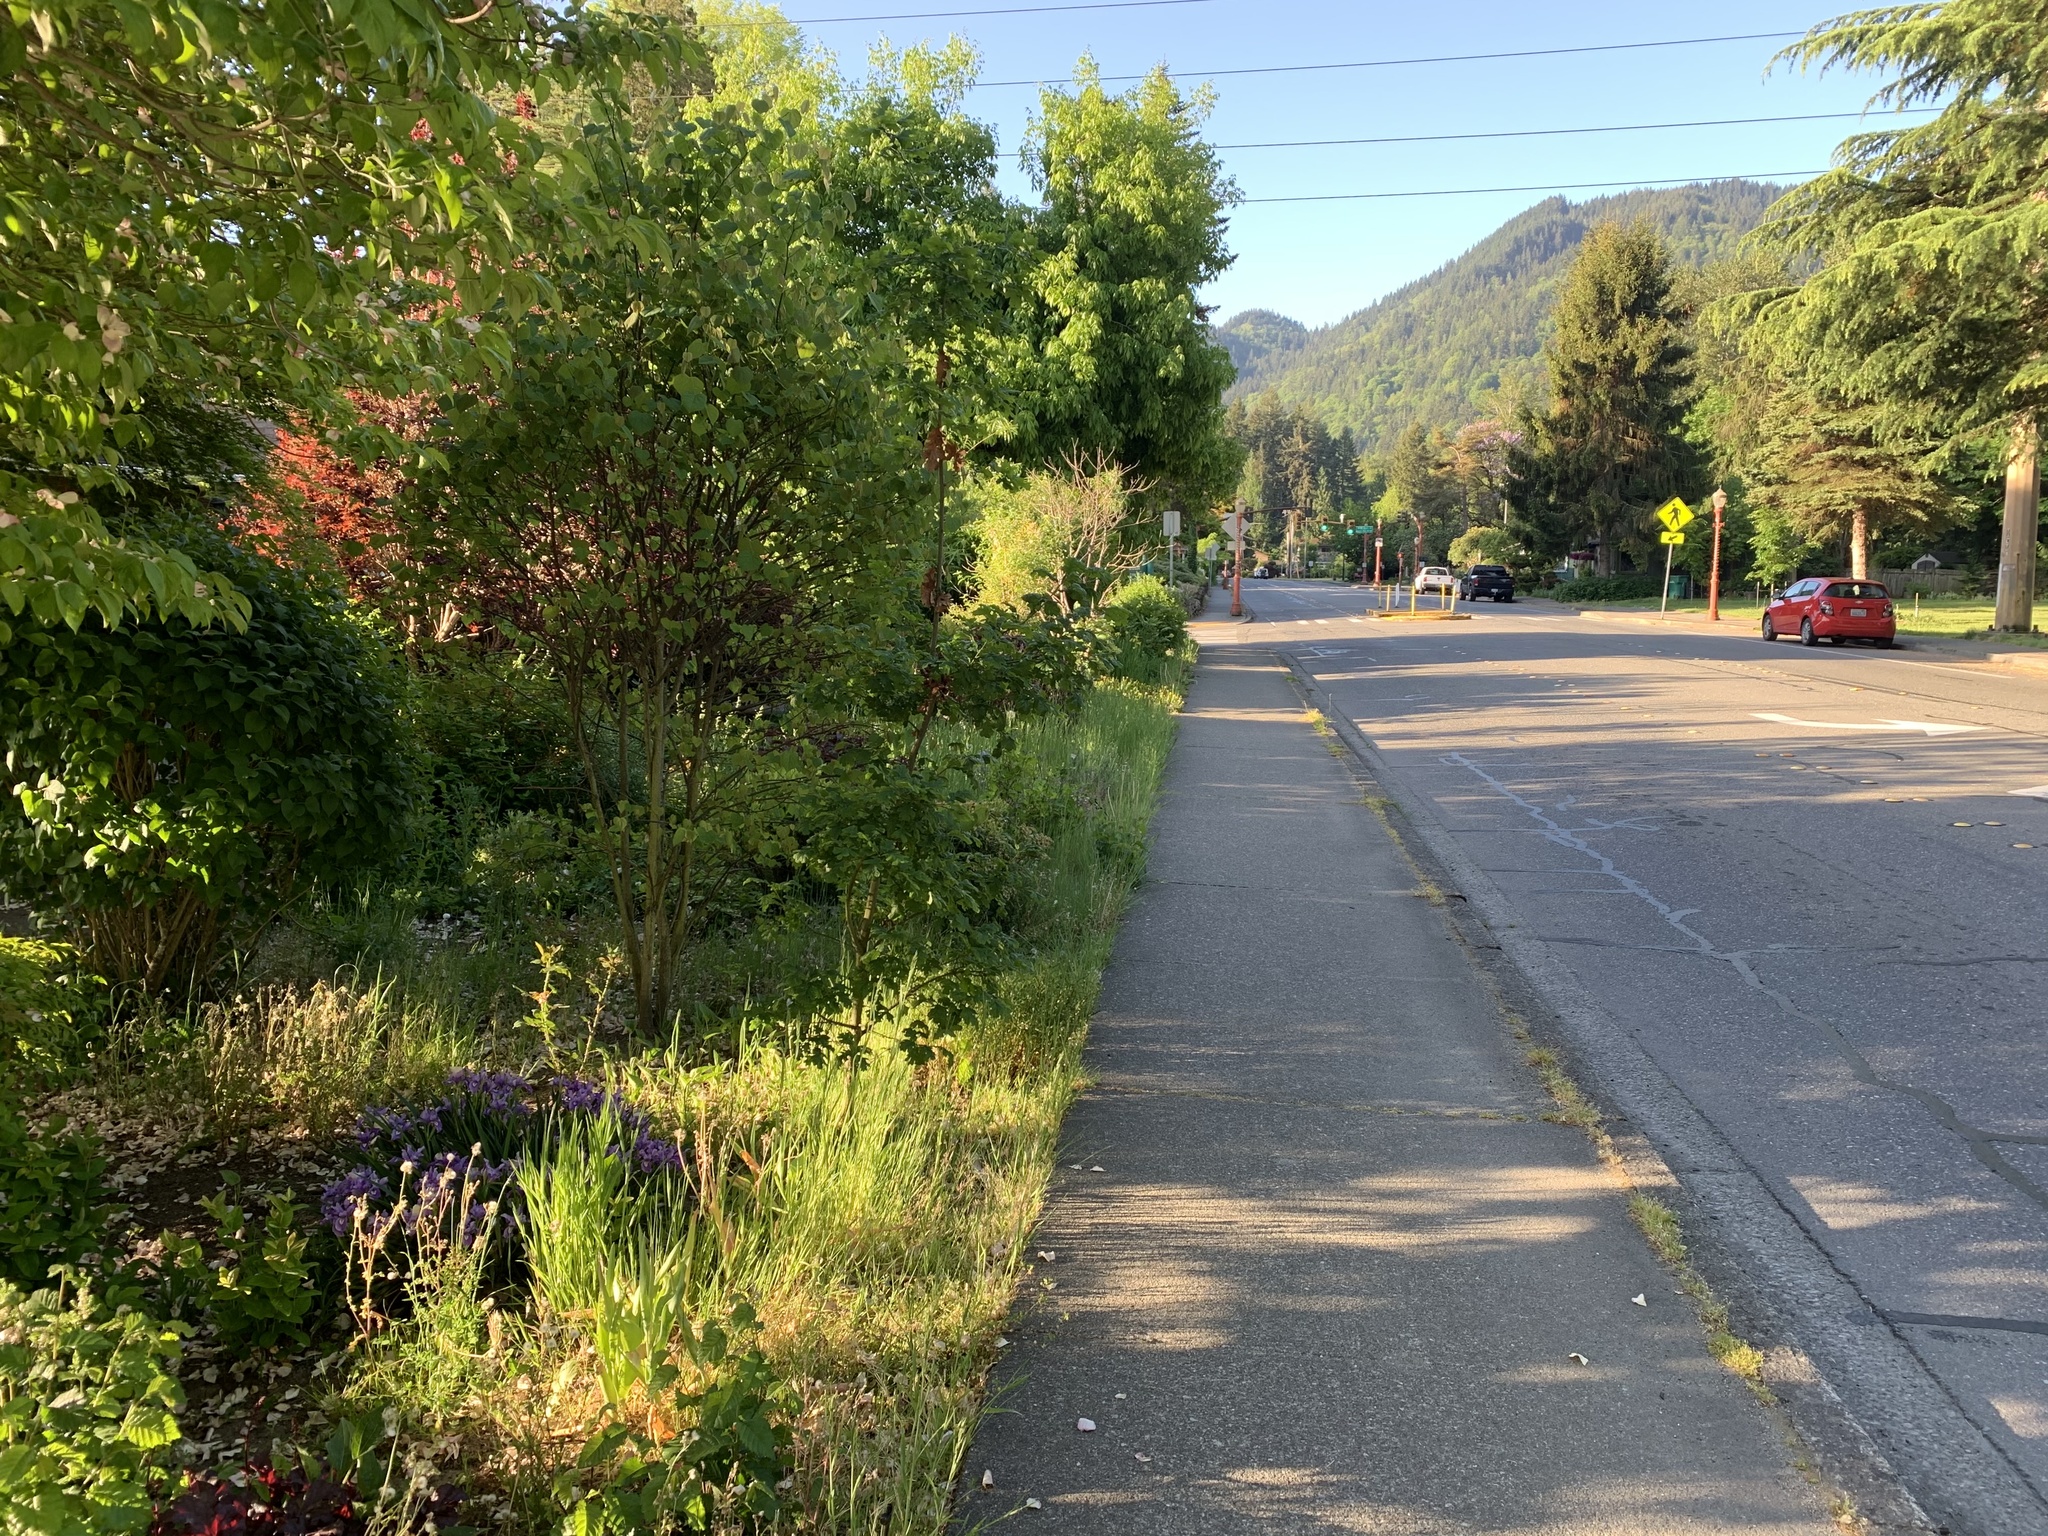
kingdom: Plantae
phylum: Tracheophyta
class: Magnoliopsida
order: Fagales
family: Fagaceae
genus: Quercus
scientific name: Quercus garryana
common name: Garry oak
